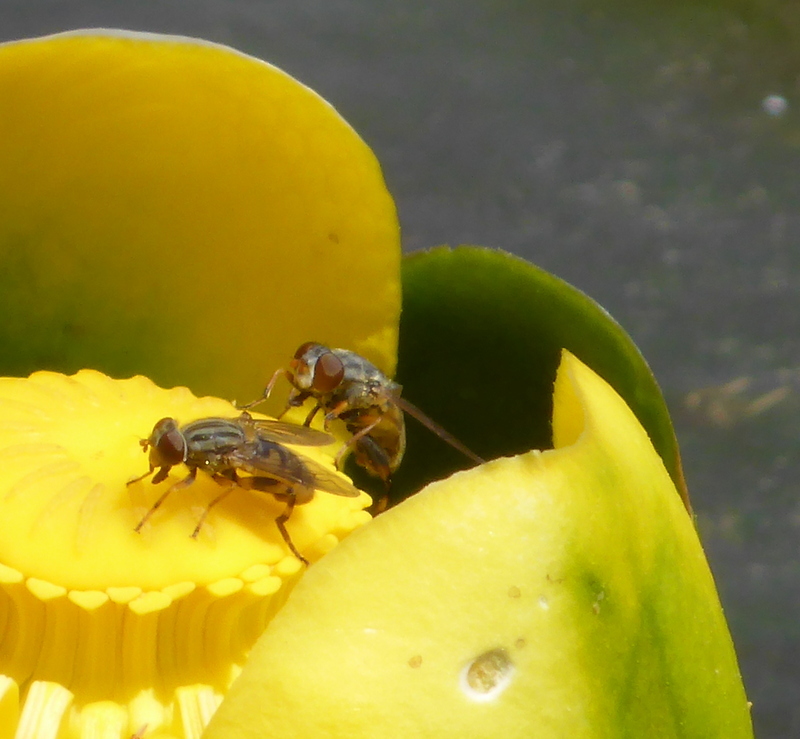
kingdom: Animalia
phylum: Arthropoda
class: Insecta
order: Diptera
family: Syrphidae
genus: Parhelophilus
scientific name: Parhelophilus divisus
